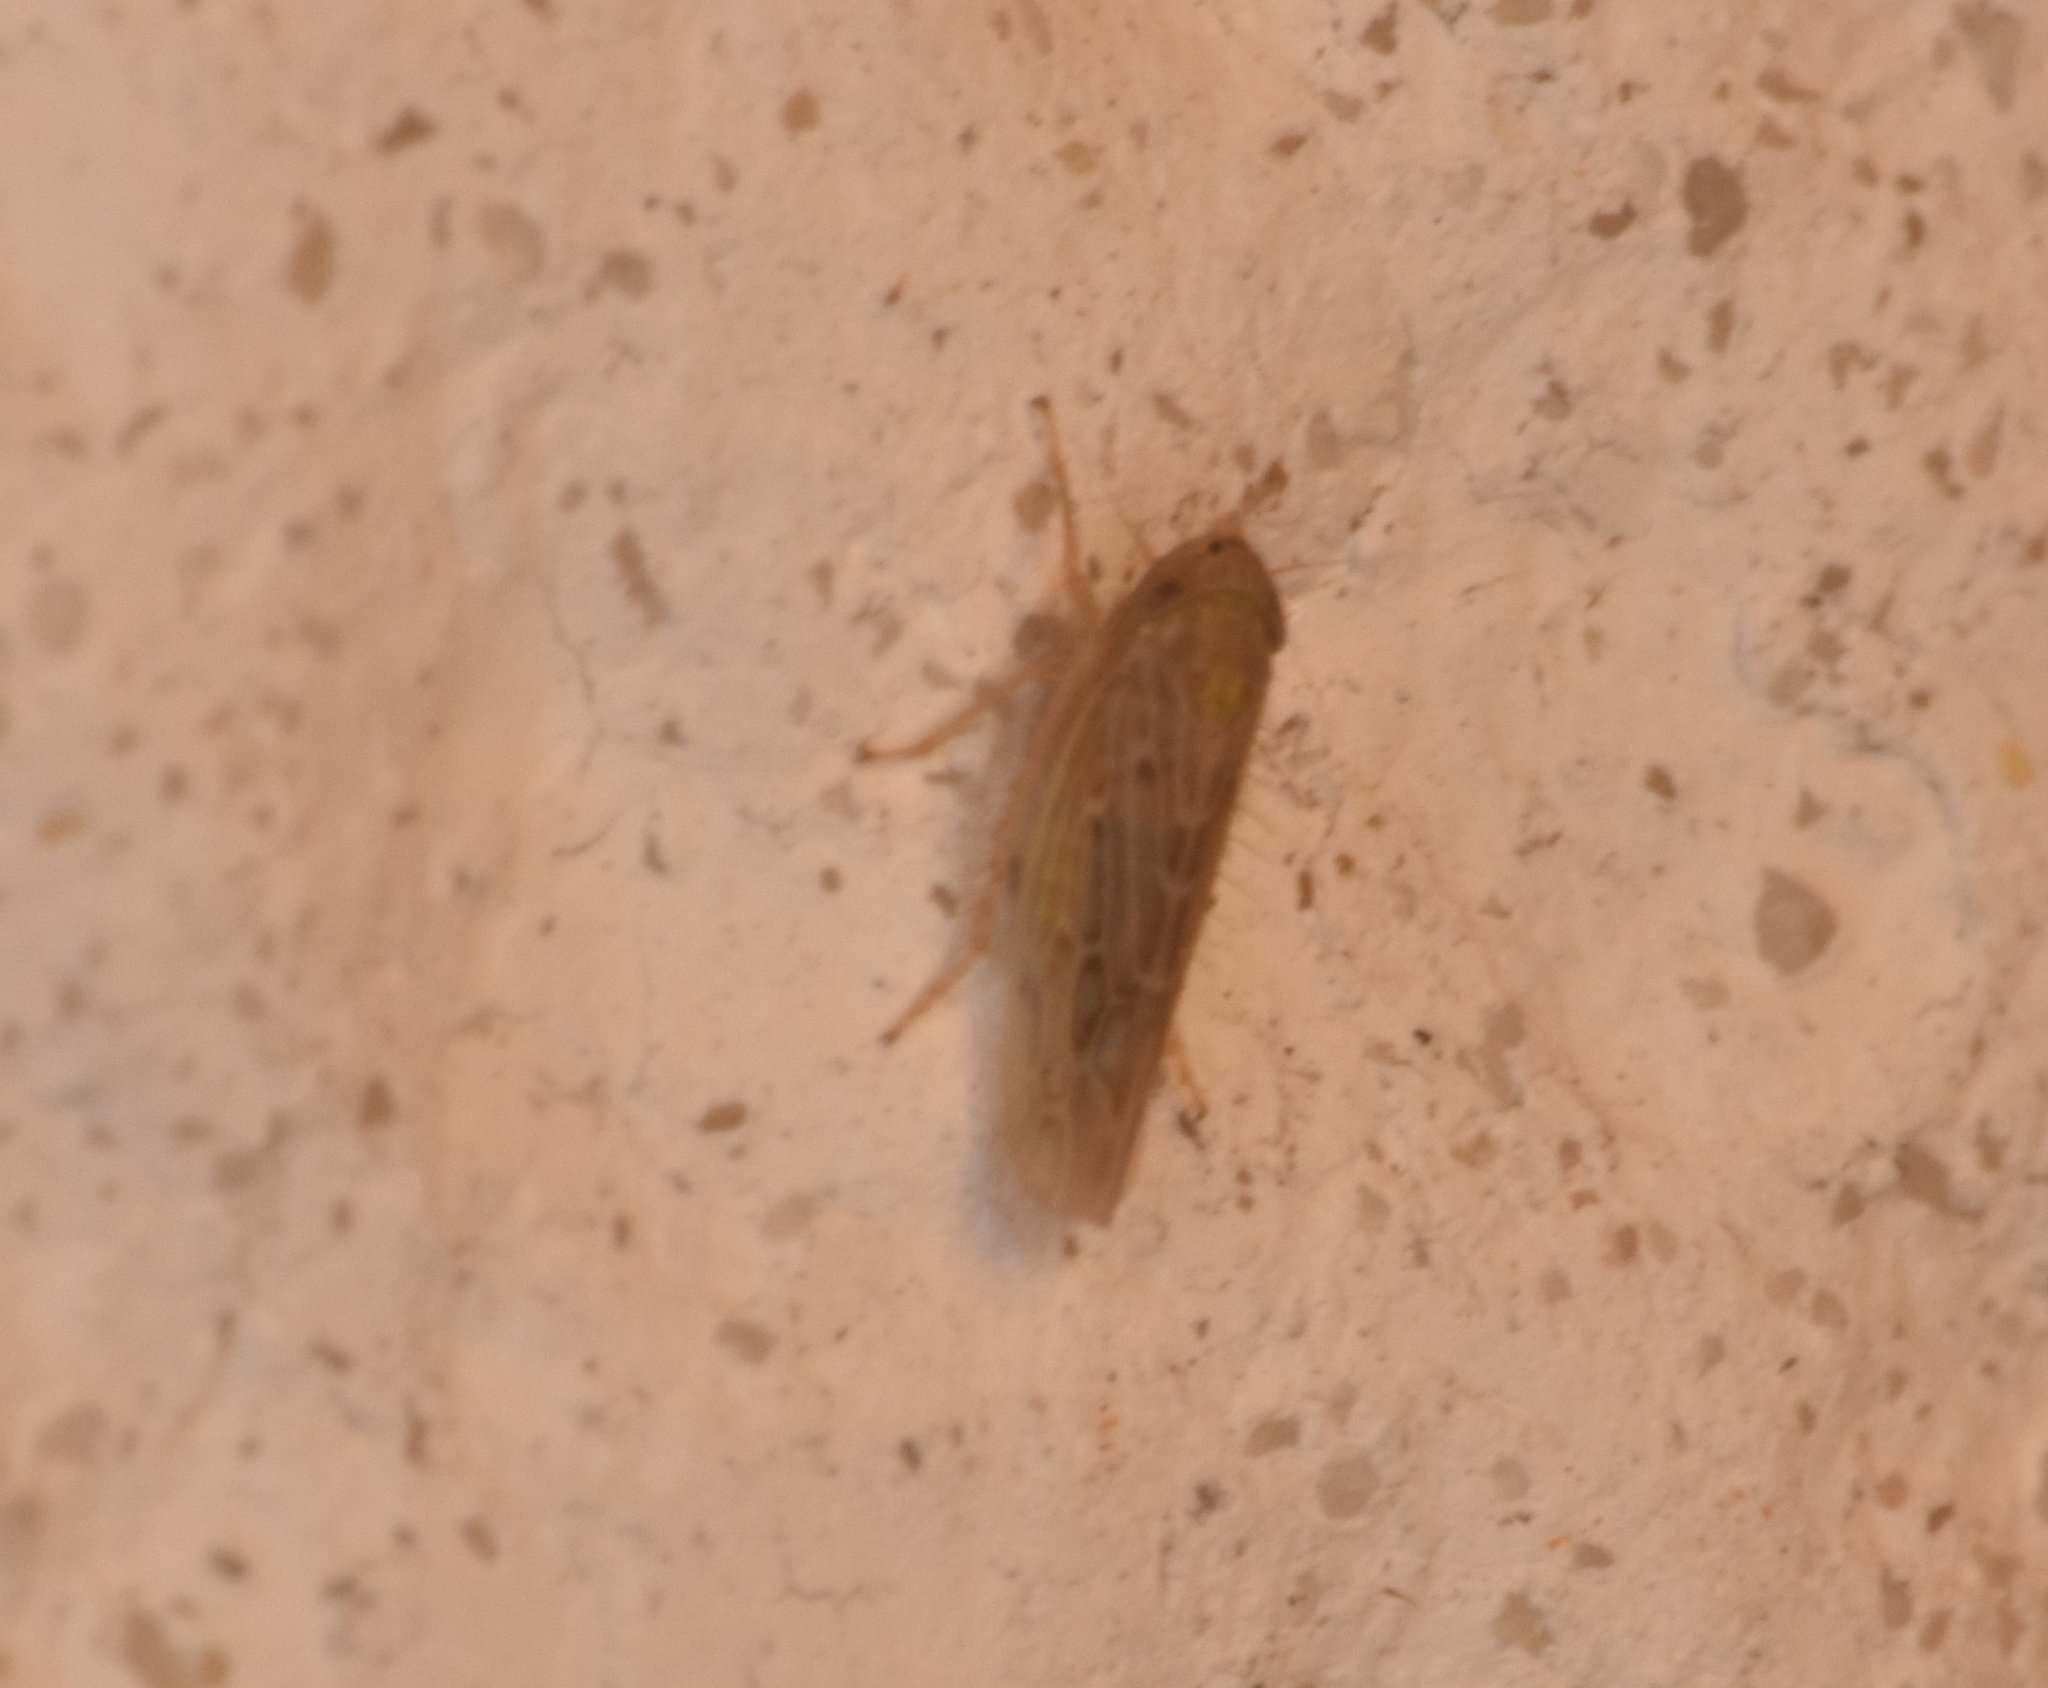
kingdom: Animalia
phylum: Arthropoda
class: Insecta
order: Hemiptera
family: Cicadellidae
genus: Graminella
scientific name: Graminella sonora
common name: Lesser lawn leafhopper
